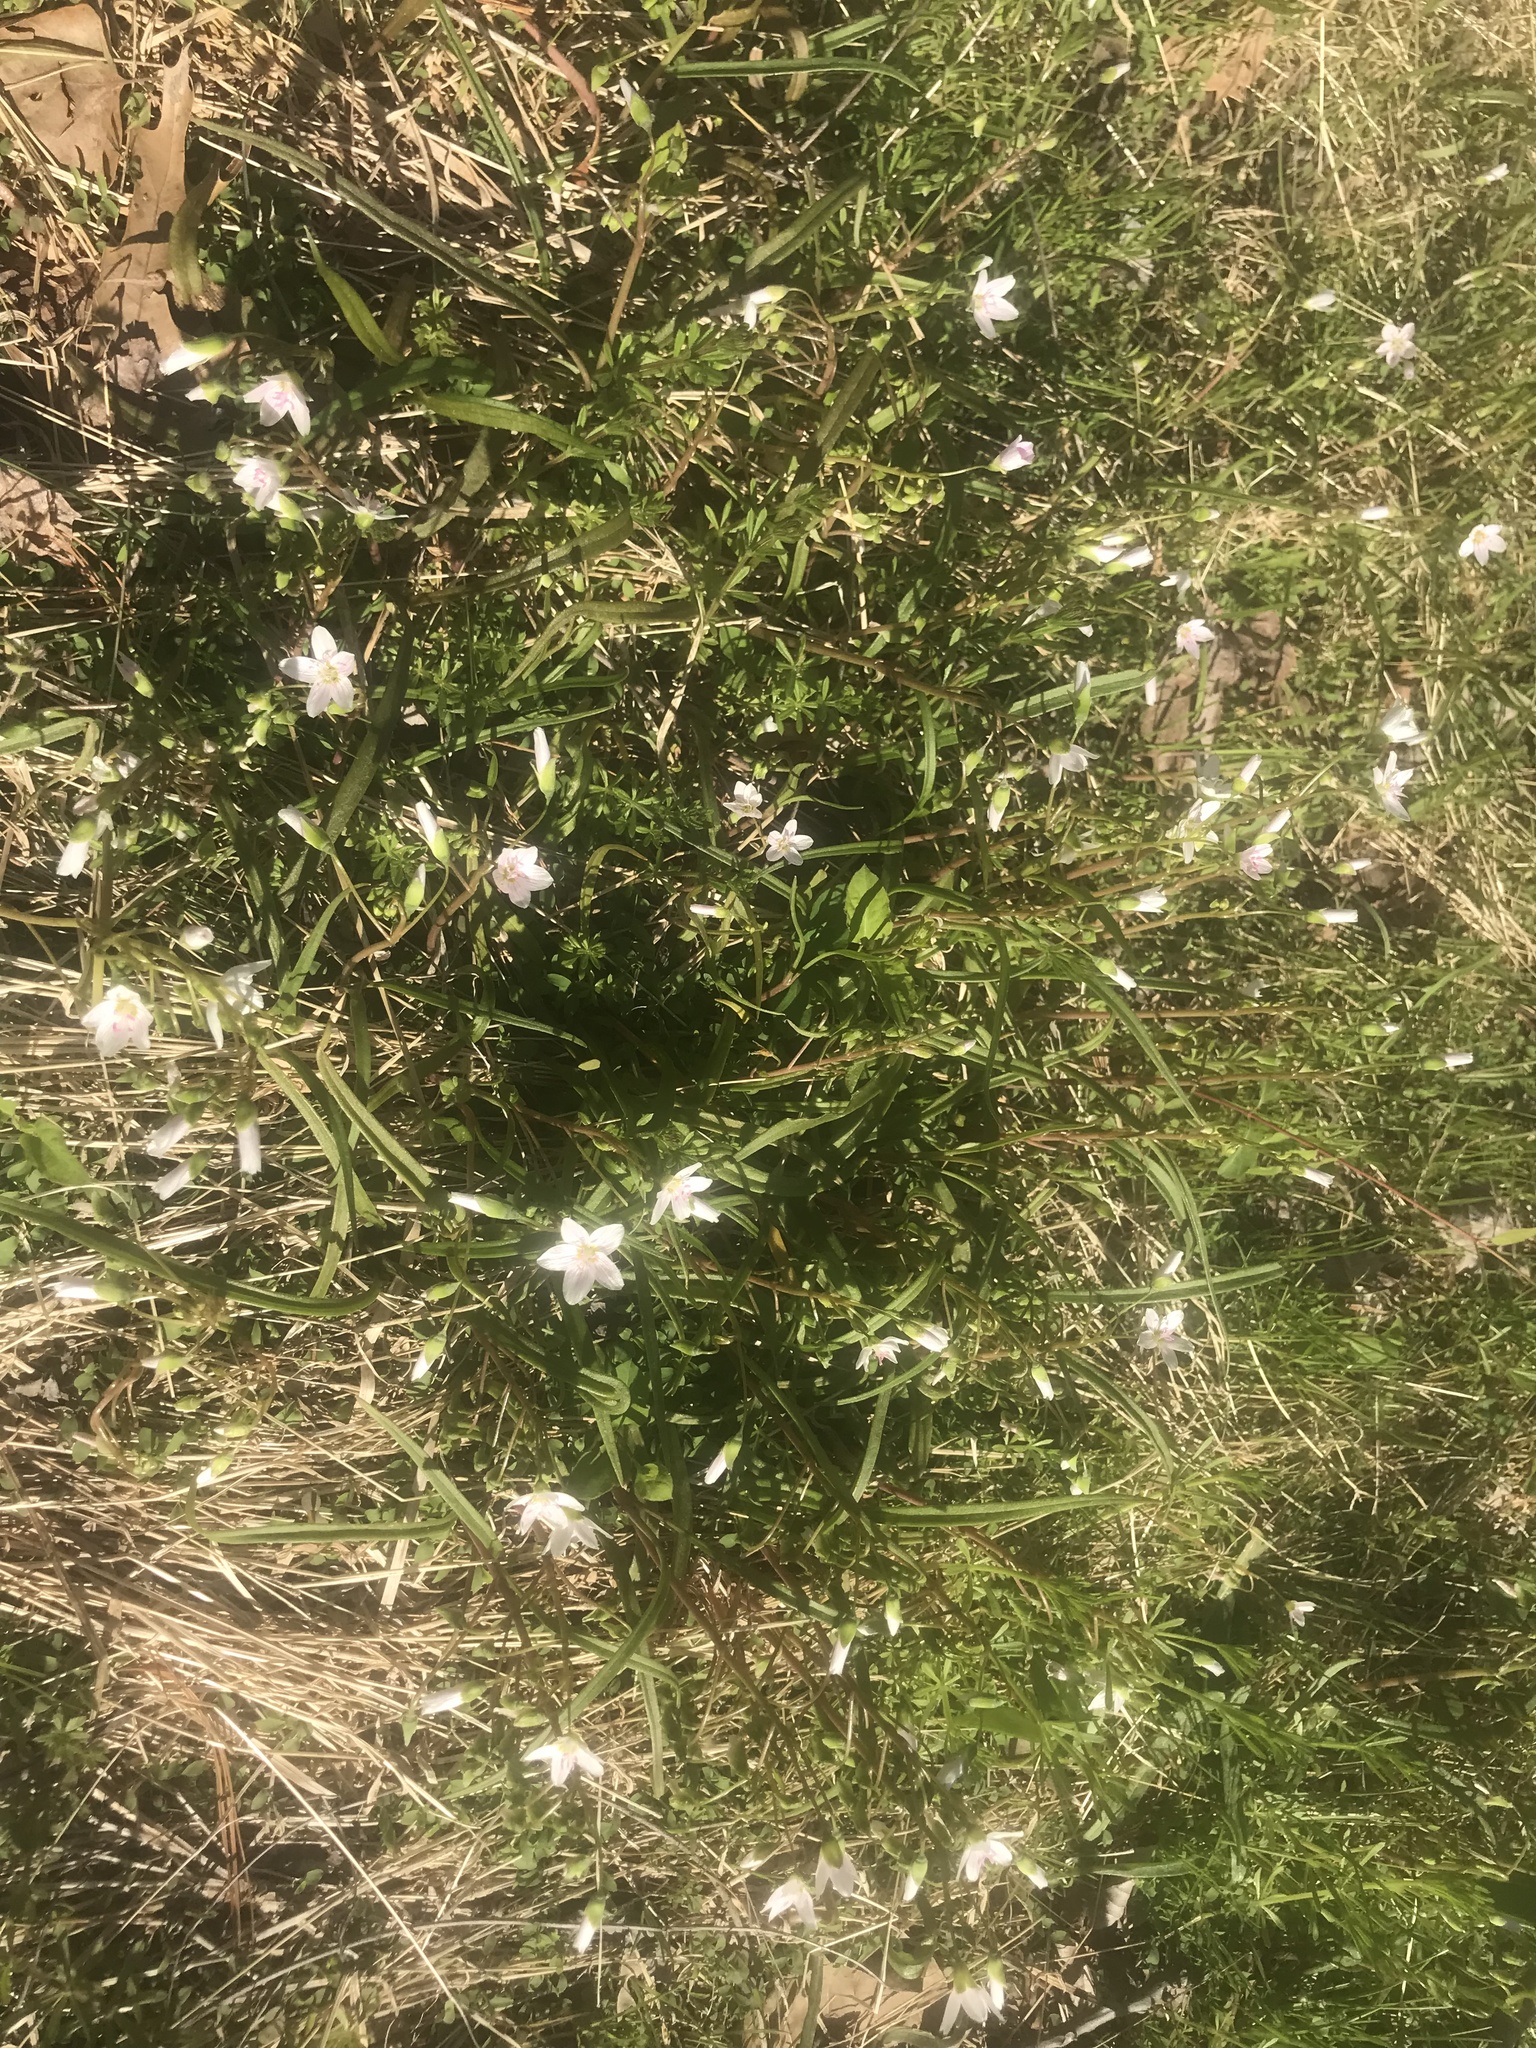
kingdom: Plantae
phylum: Tracheophyta
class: Magnoliopsida
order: Caryophyllales
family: Montiaceae
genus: Claytonia
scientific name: Claytonia virginica
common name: Virginia springbeauty
